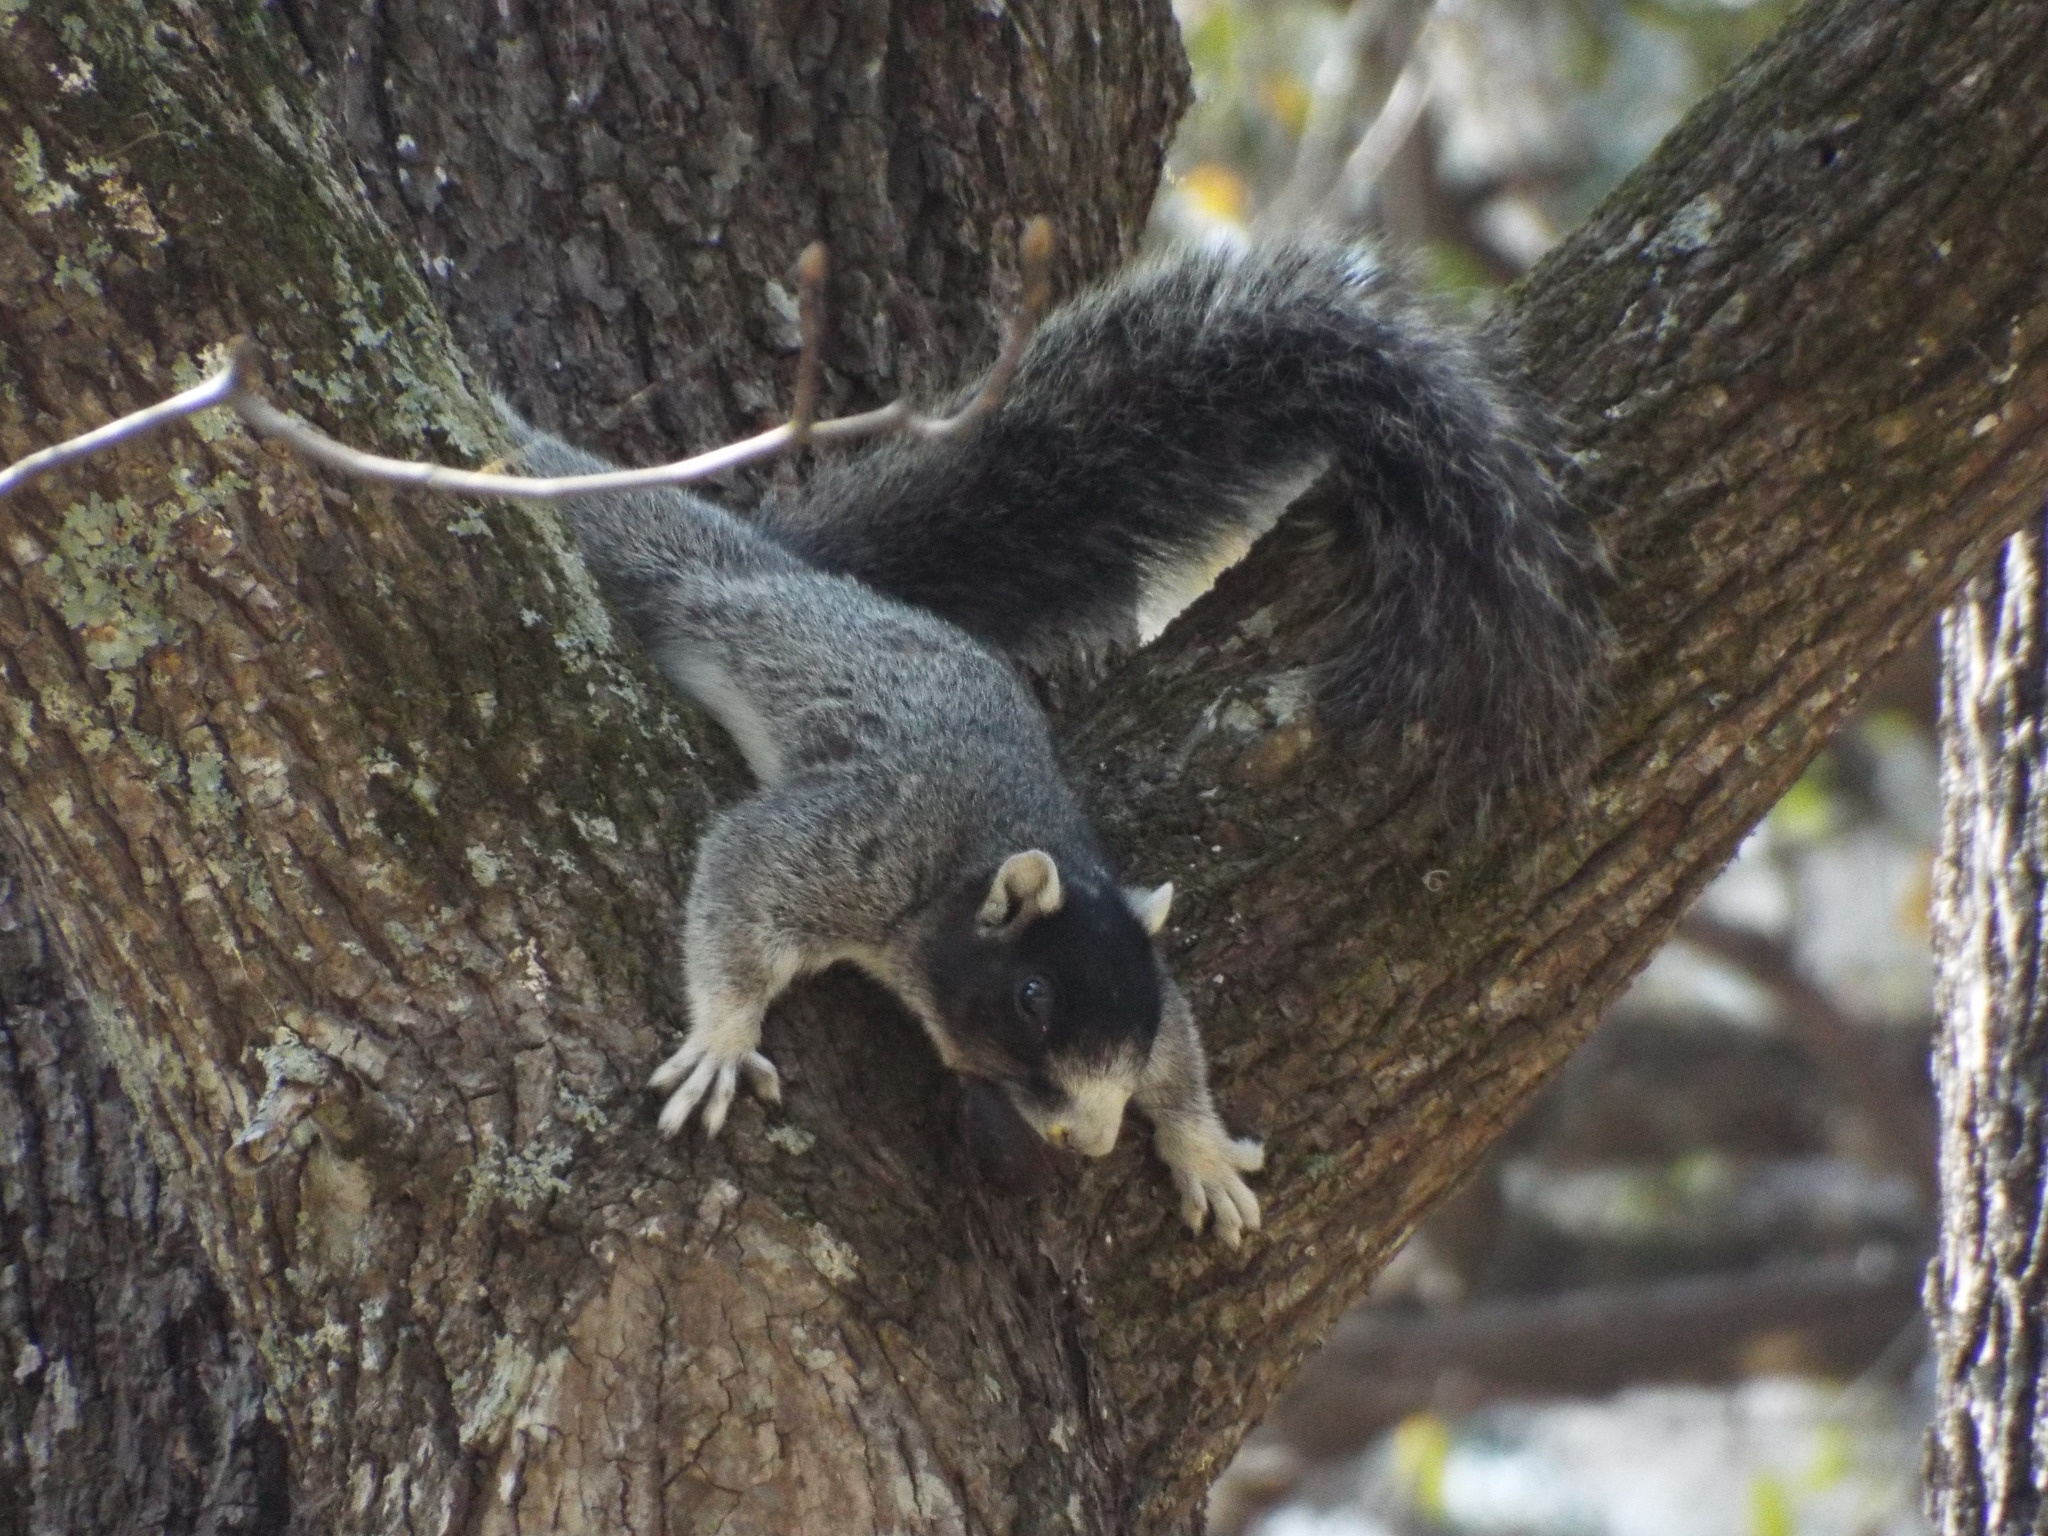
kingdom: Animalia
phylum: Chordata
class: Mammalia
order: Rodentia
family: Sciuridae
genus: Sciurus
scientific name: Sciurus niger
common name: Fox squirrel
